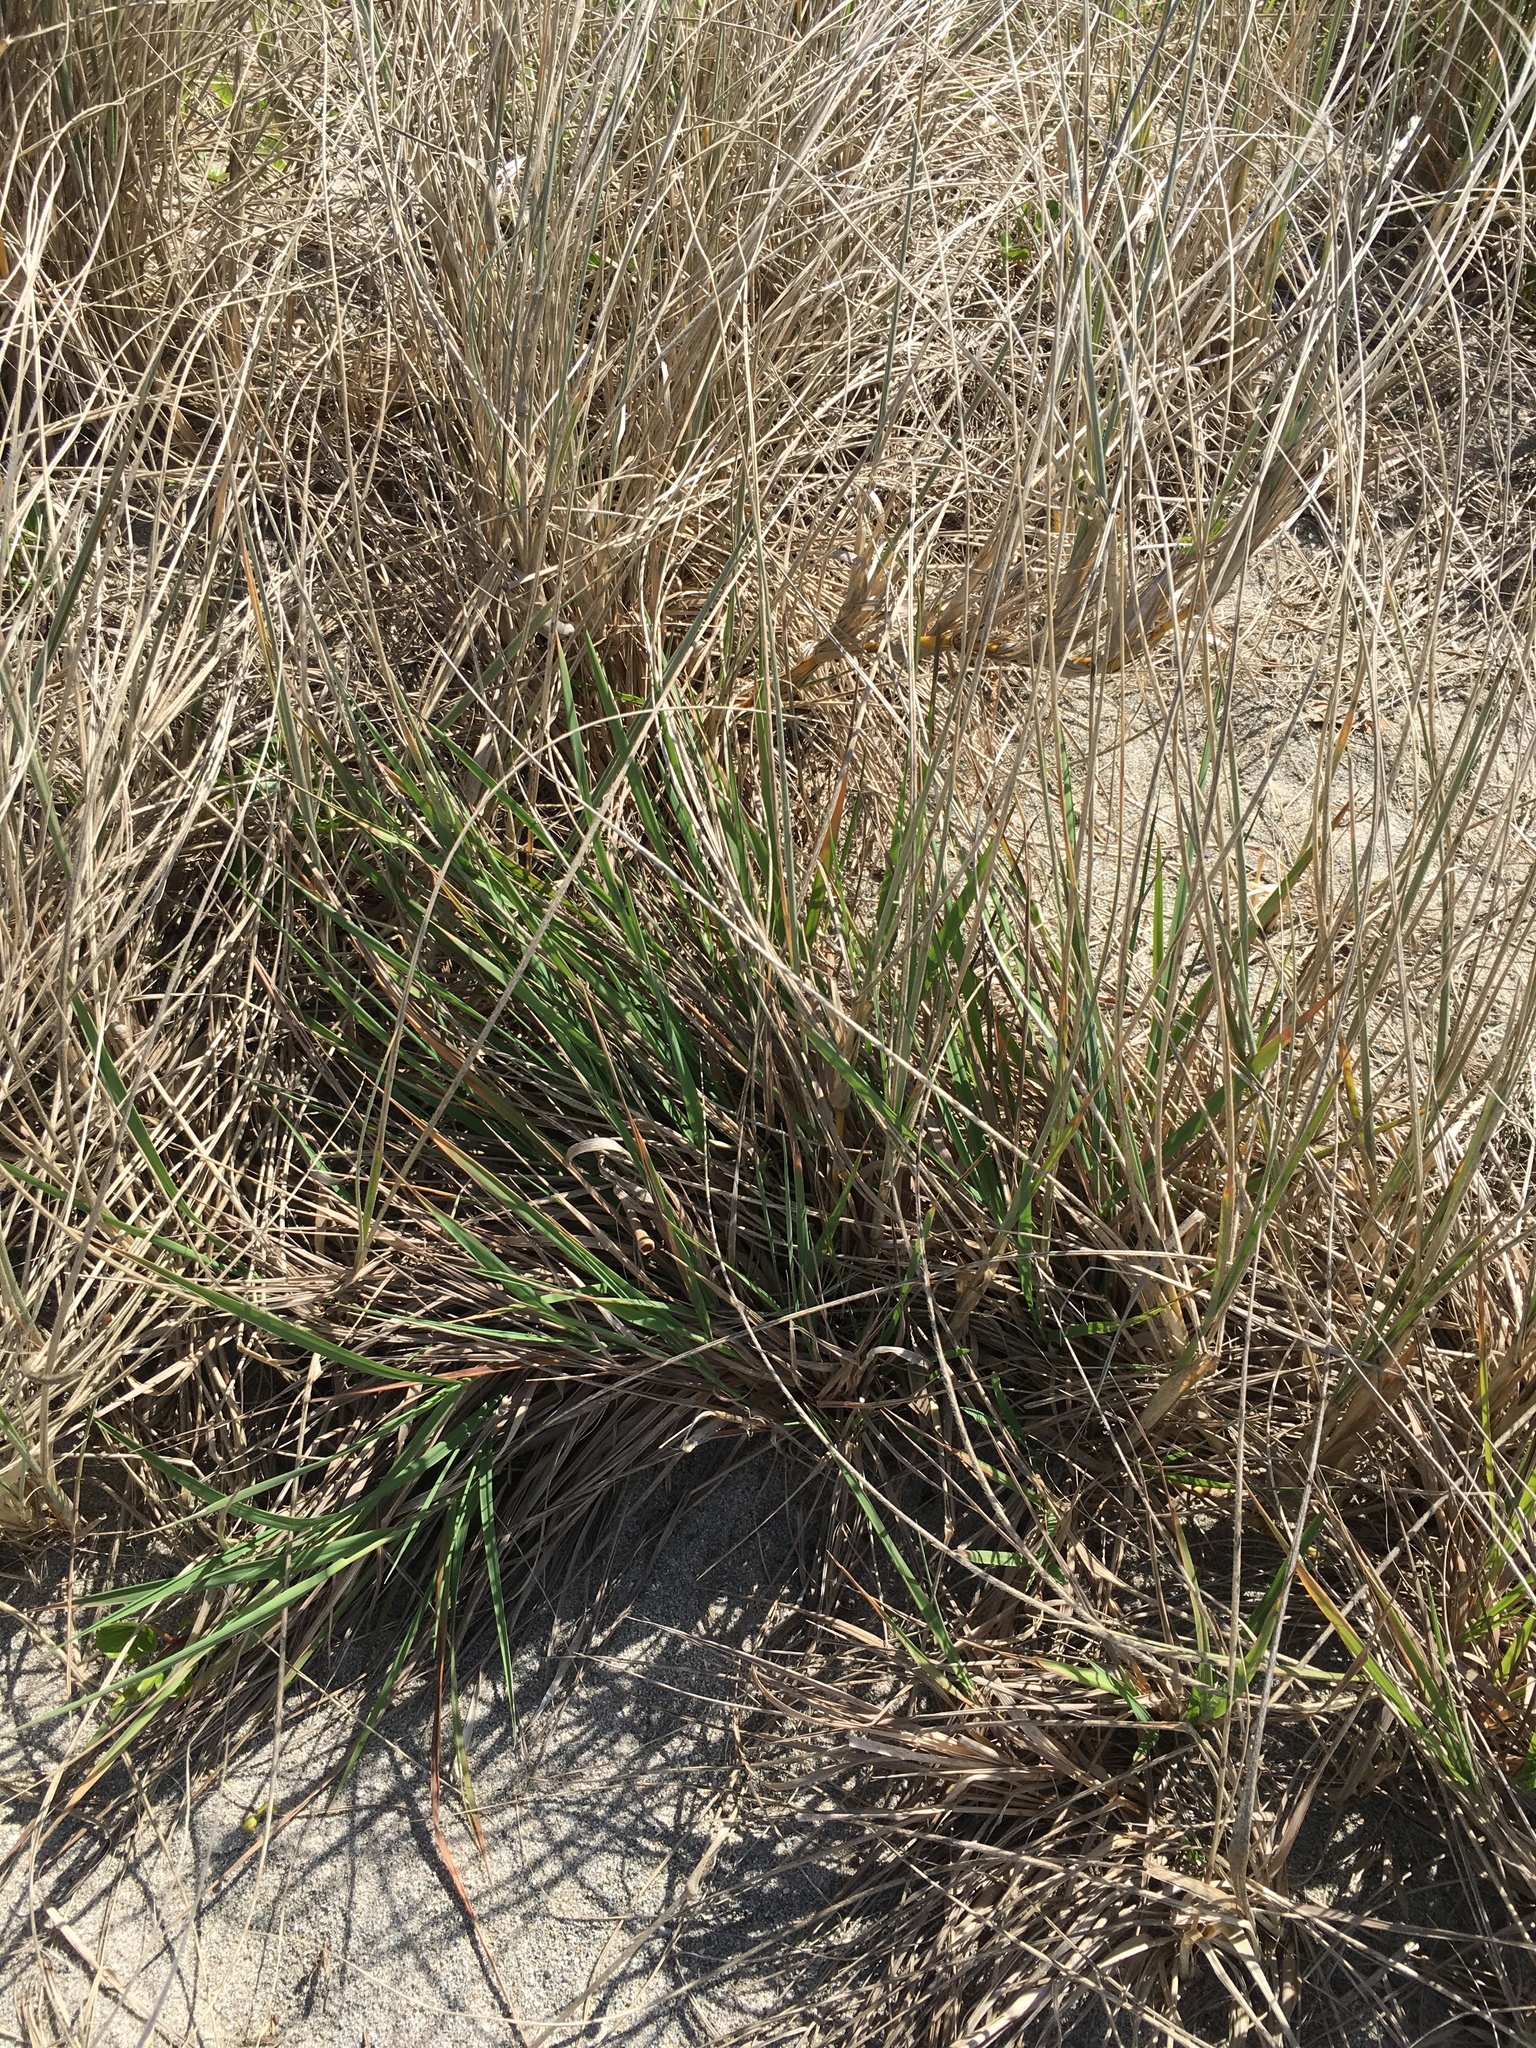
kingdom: Plantae
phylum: Tracheophyta
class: Liliopsida
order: Poales
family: Poaceae
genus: Lachnagrostis
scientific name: Lachnagrostis billardierei
